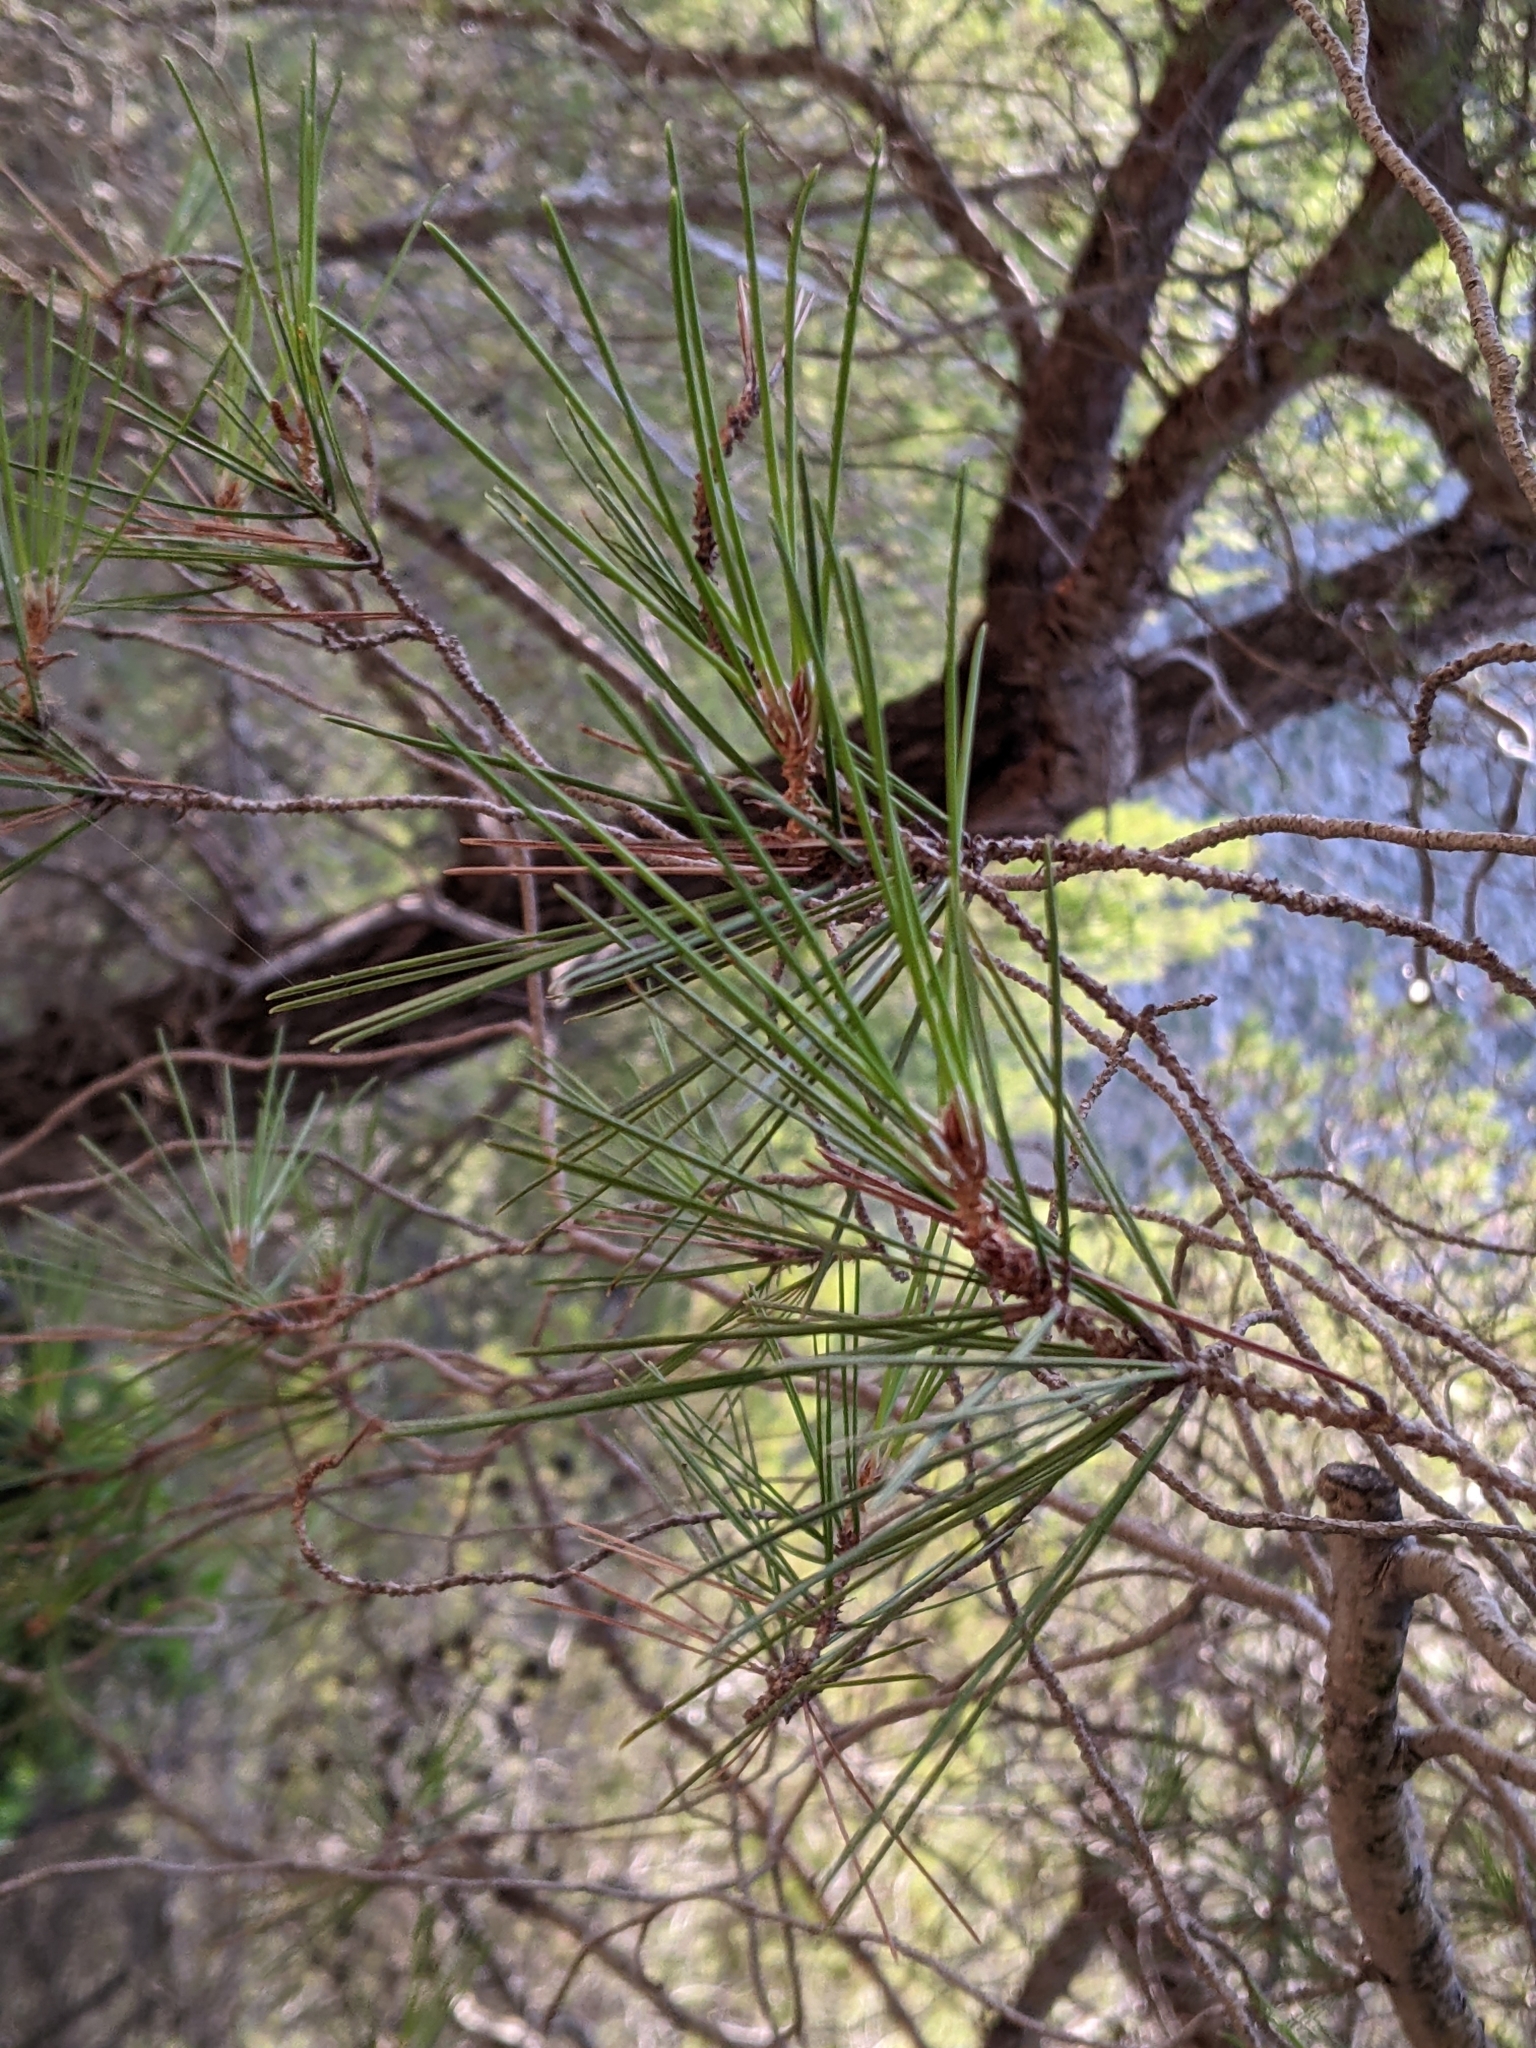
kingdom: Plantae
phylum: Tracheophyta
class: Pinopsida
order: Pinales
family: Pinaceae
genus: Pinus
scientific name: Pinus halepensis
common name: Aleppo pine
